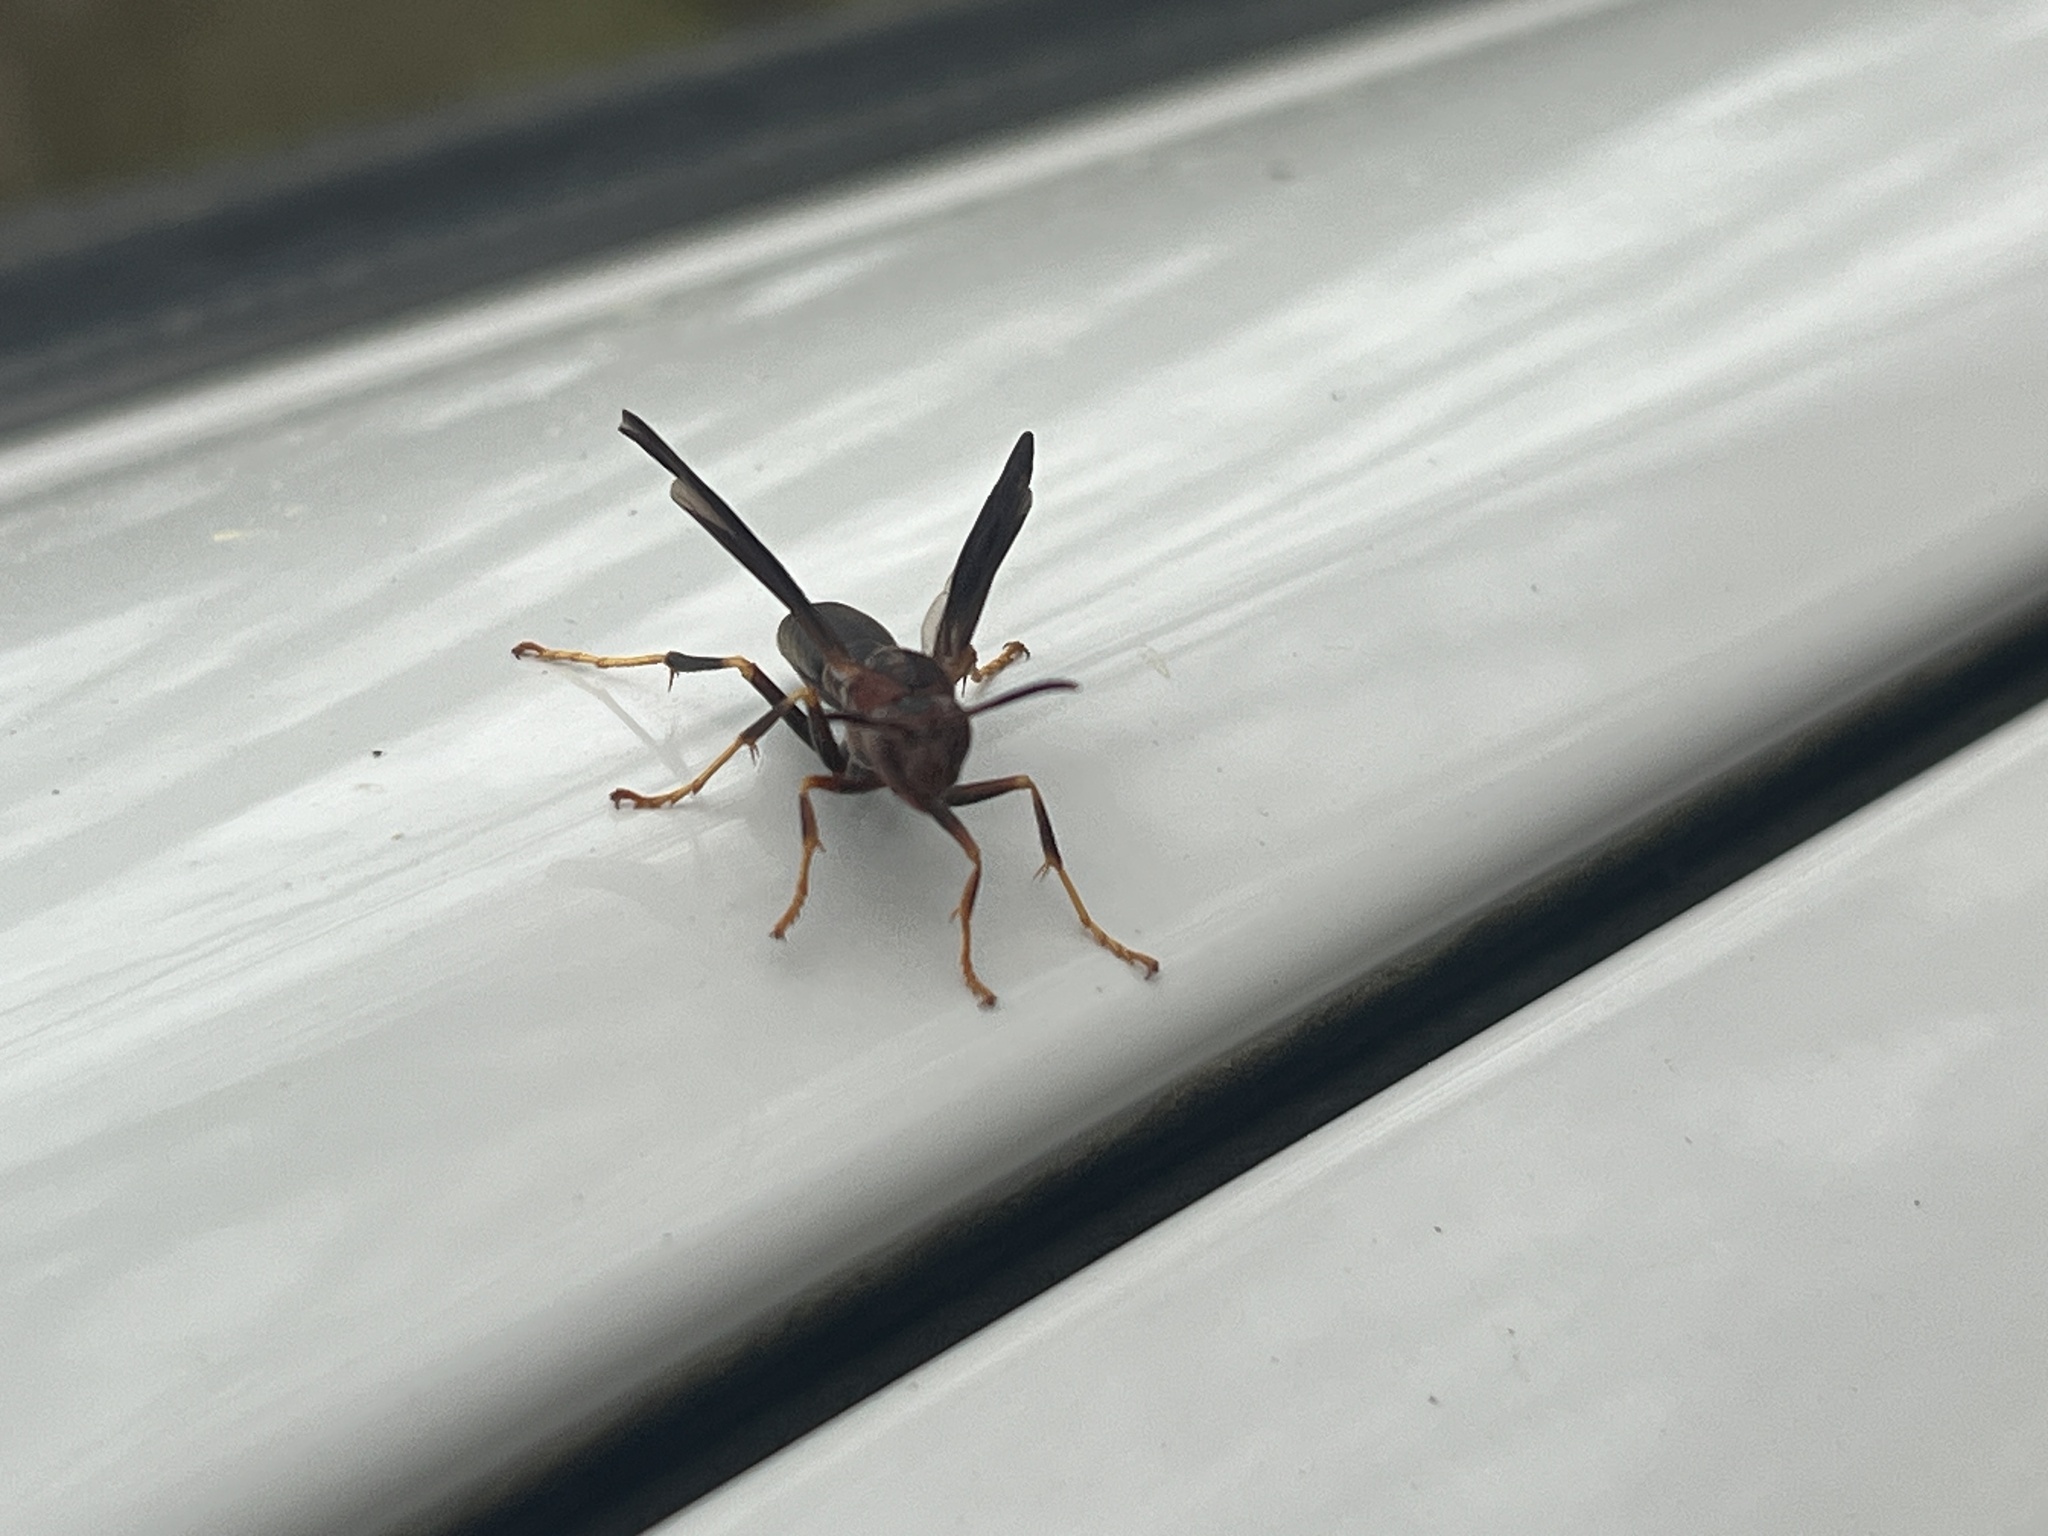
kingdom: Animalia
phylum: Arthropoda
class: Insecta
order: Hymenoptera
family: Eumenidae
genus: Polistes
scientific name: Polistes metricus
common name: Metric paper wasp
